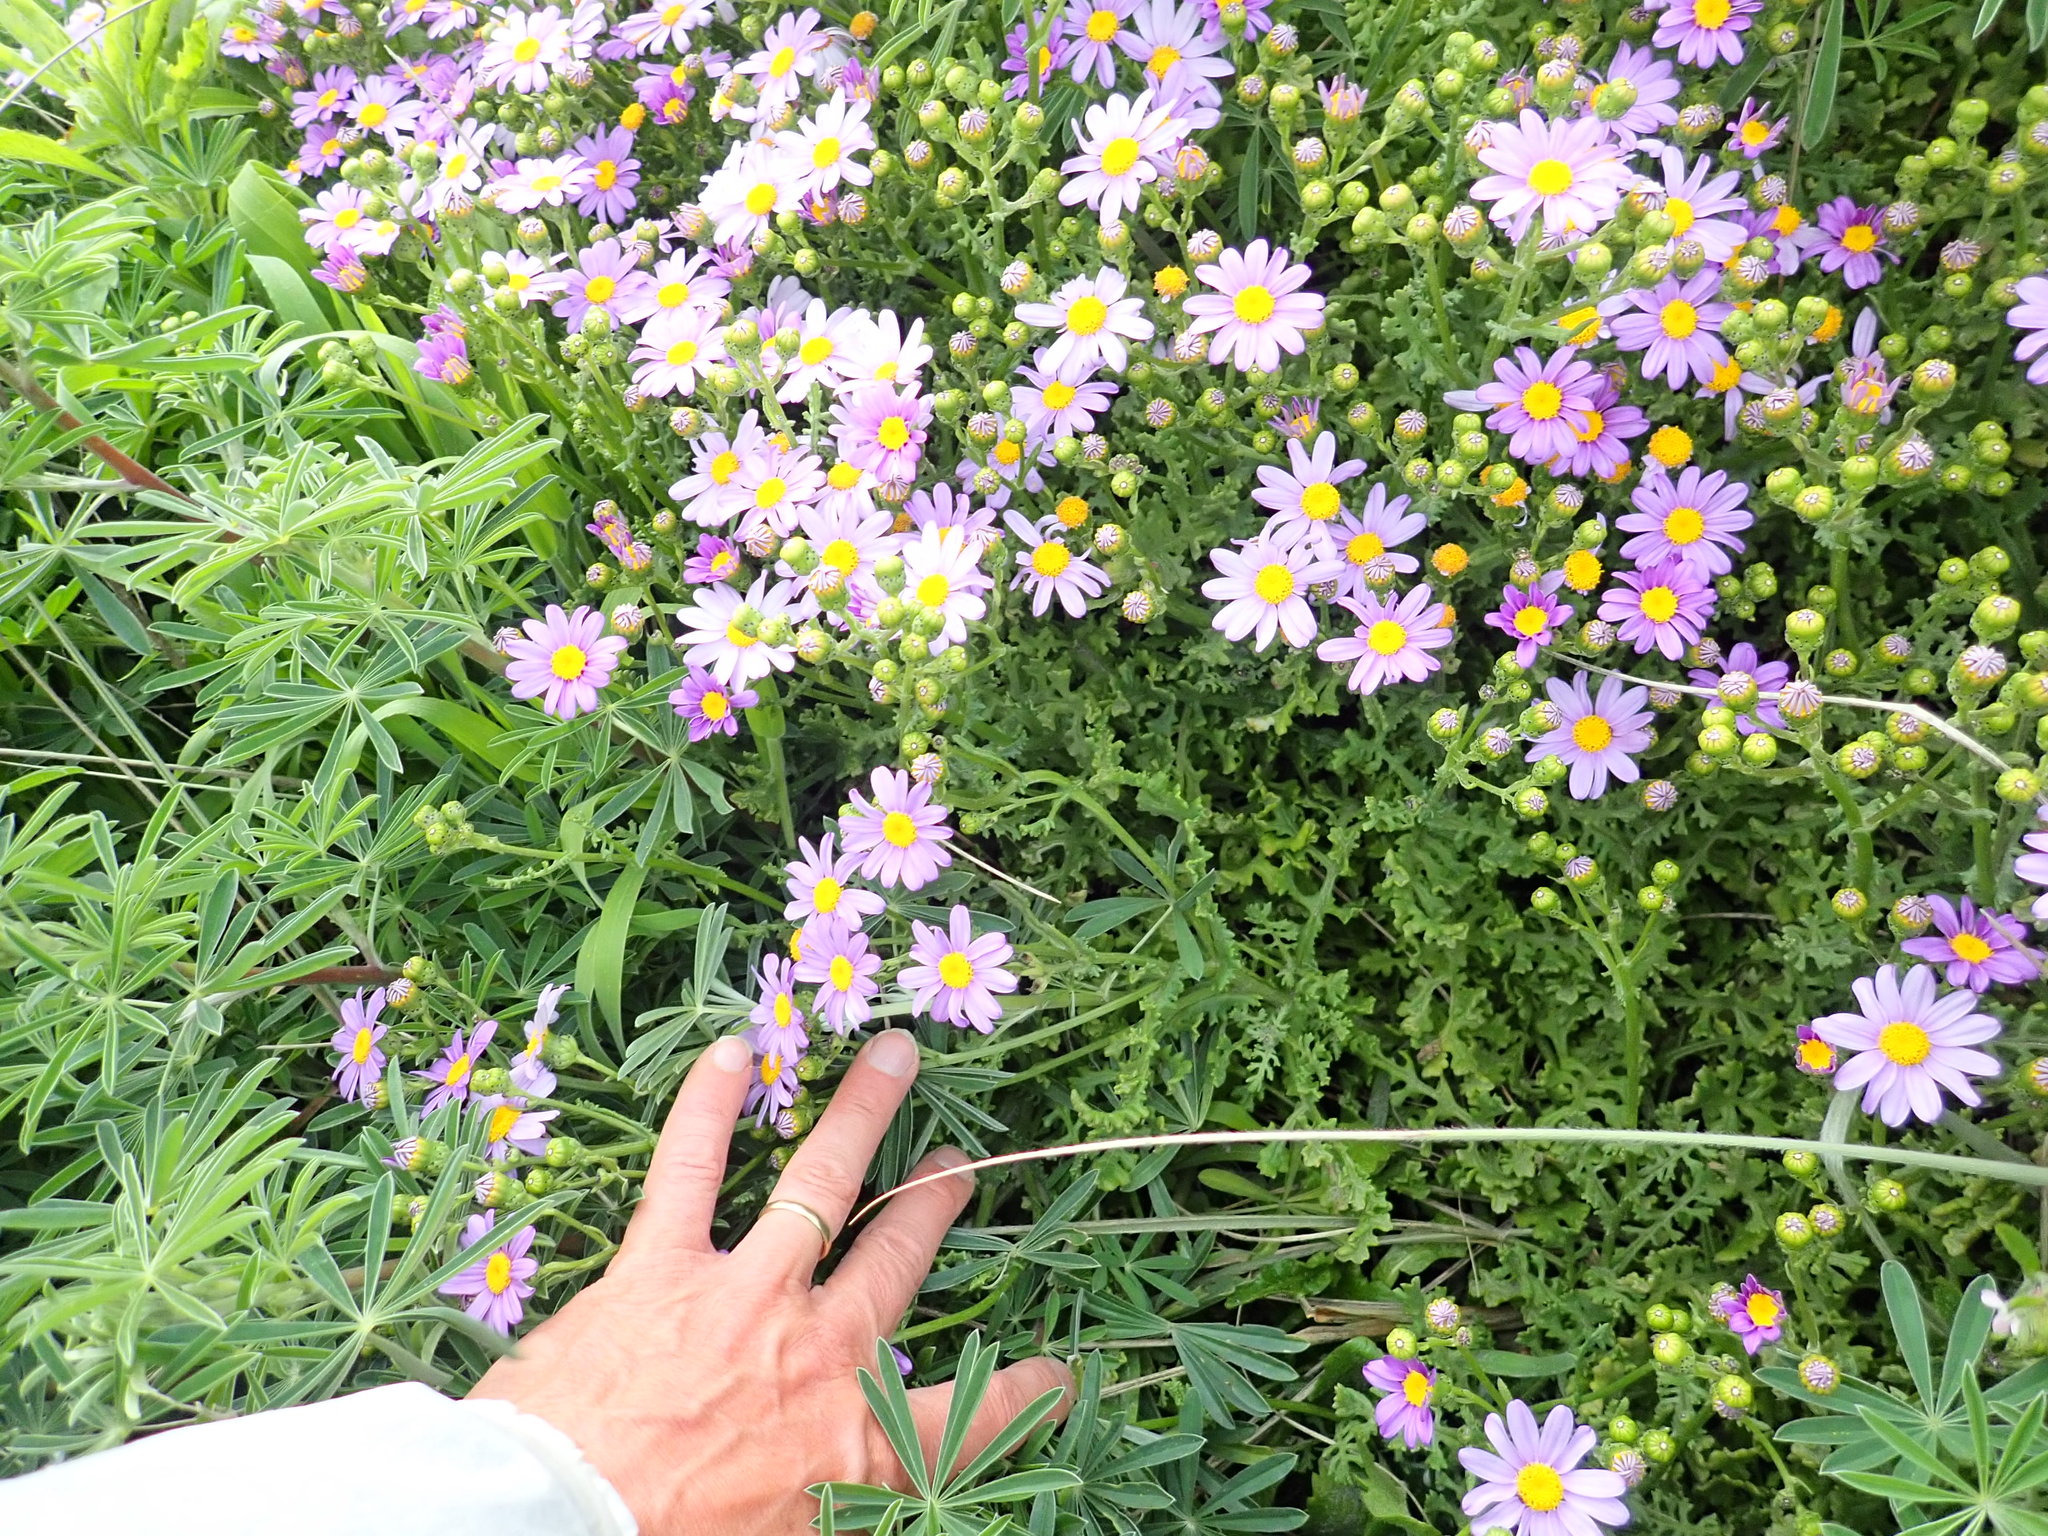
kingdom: Plantae
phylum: Tracheophyta
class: Magnoliopsida
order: Asterales
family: Asteraceae
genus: Senecio
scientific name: Senecio elegans
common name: Purple groundsel
